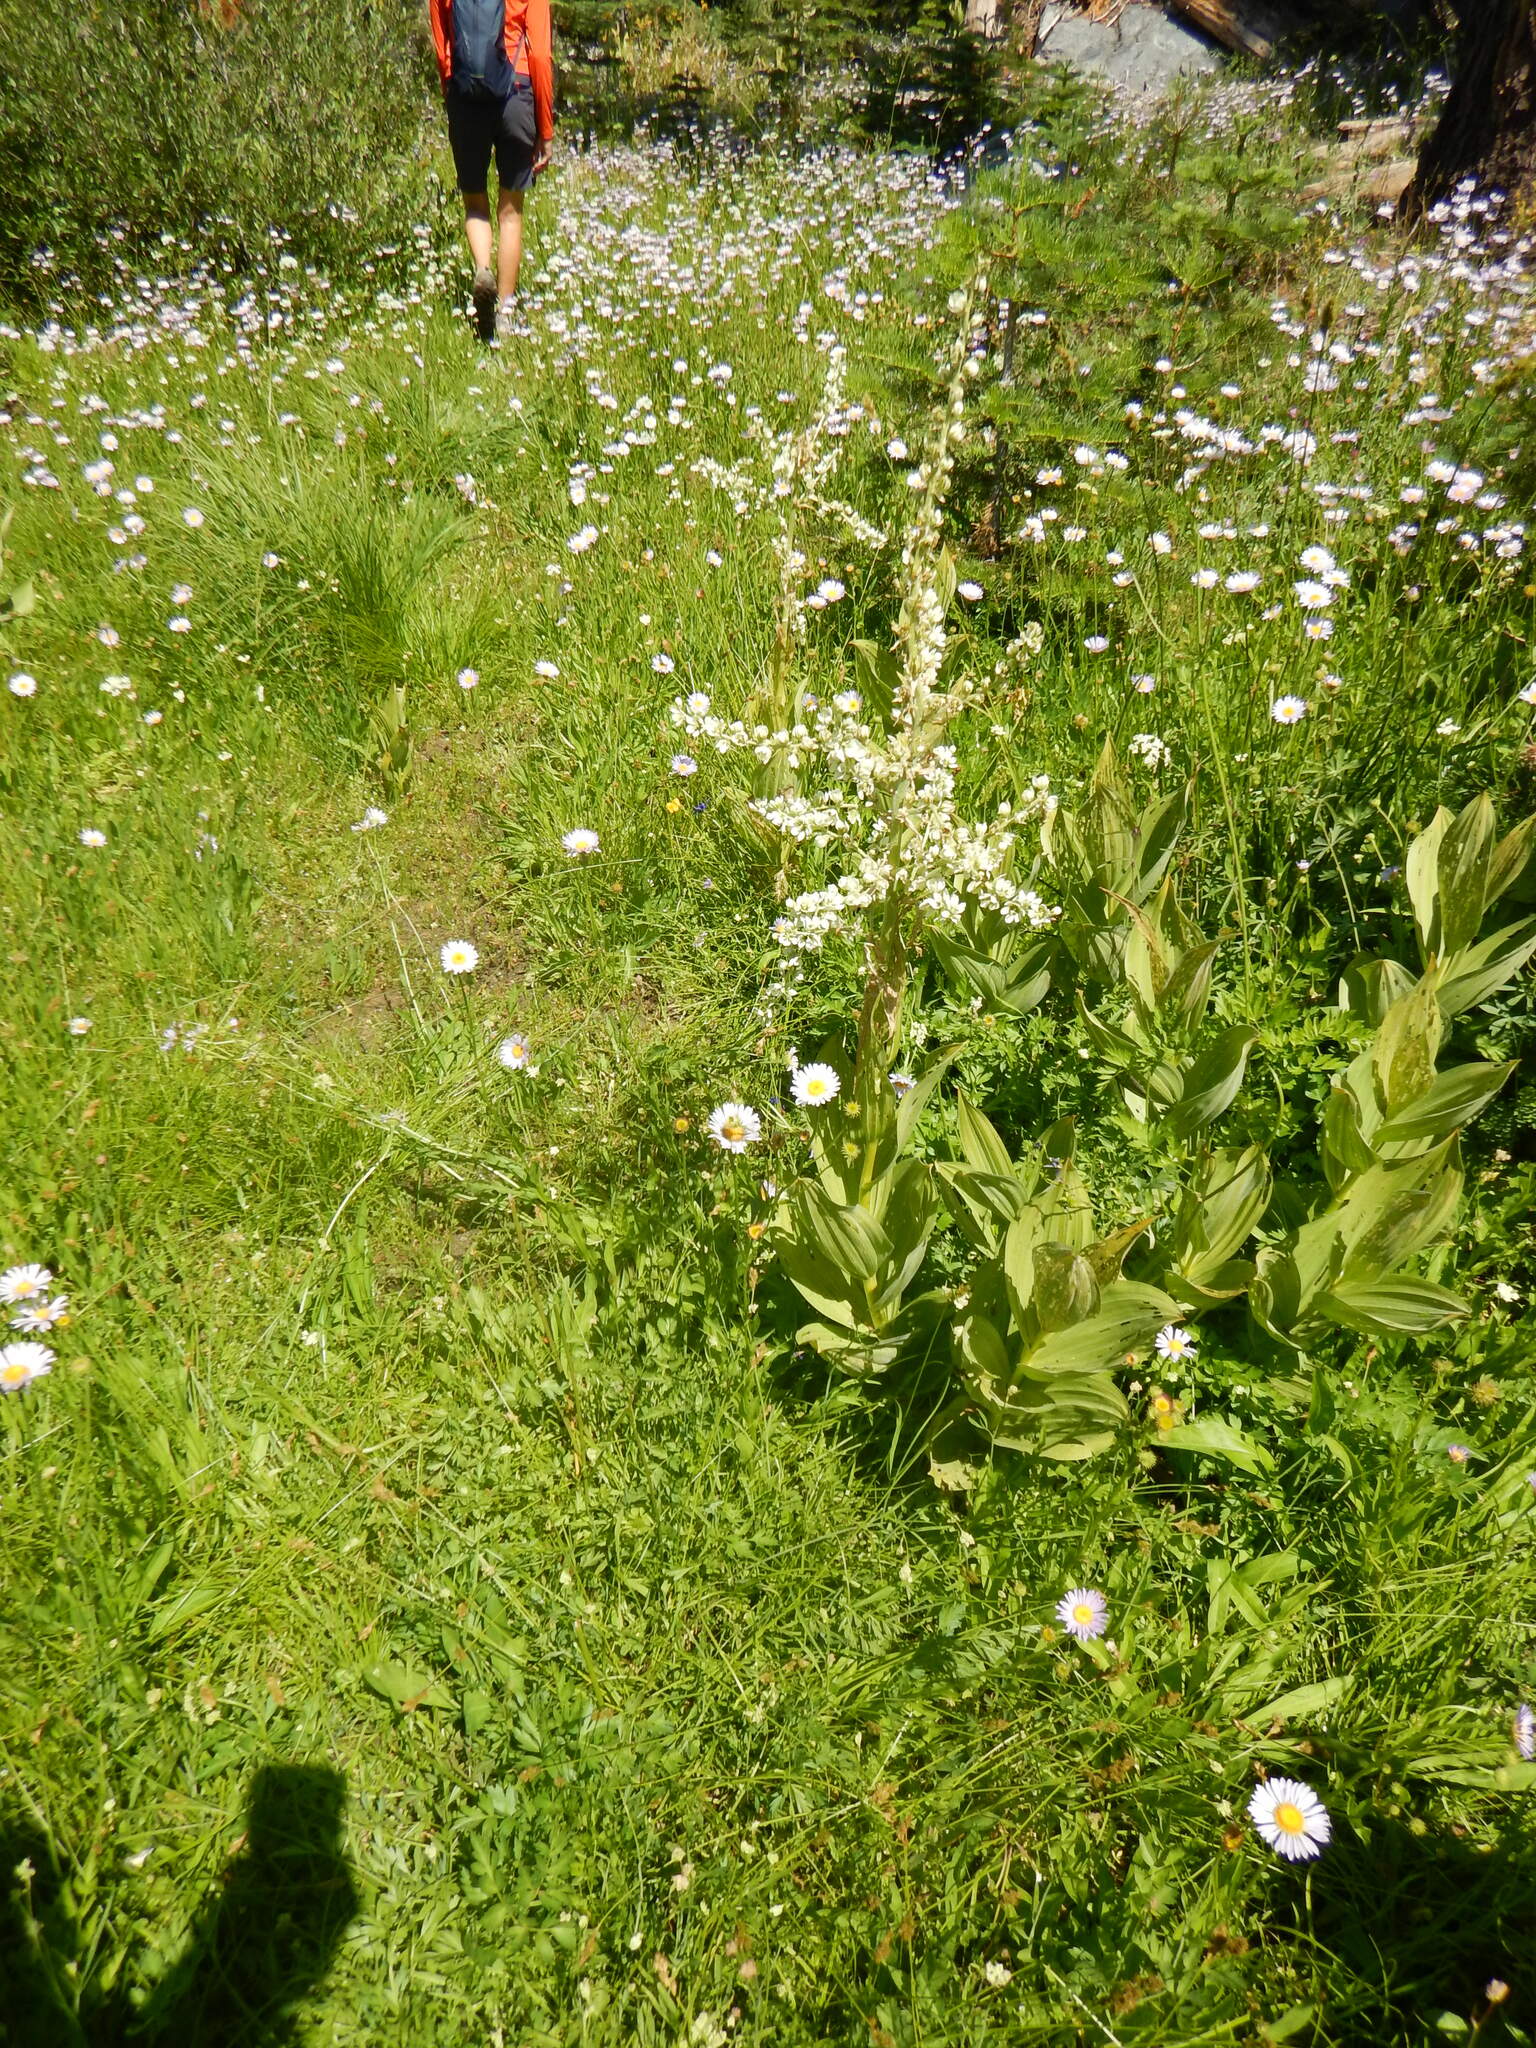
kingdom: Plantae
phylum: Tracheophyta
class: Liliopsida
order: Liliales
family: Melanthiaceae
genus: Veratrum
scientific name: Veratrum californicum
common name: California veratrum
